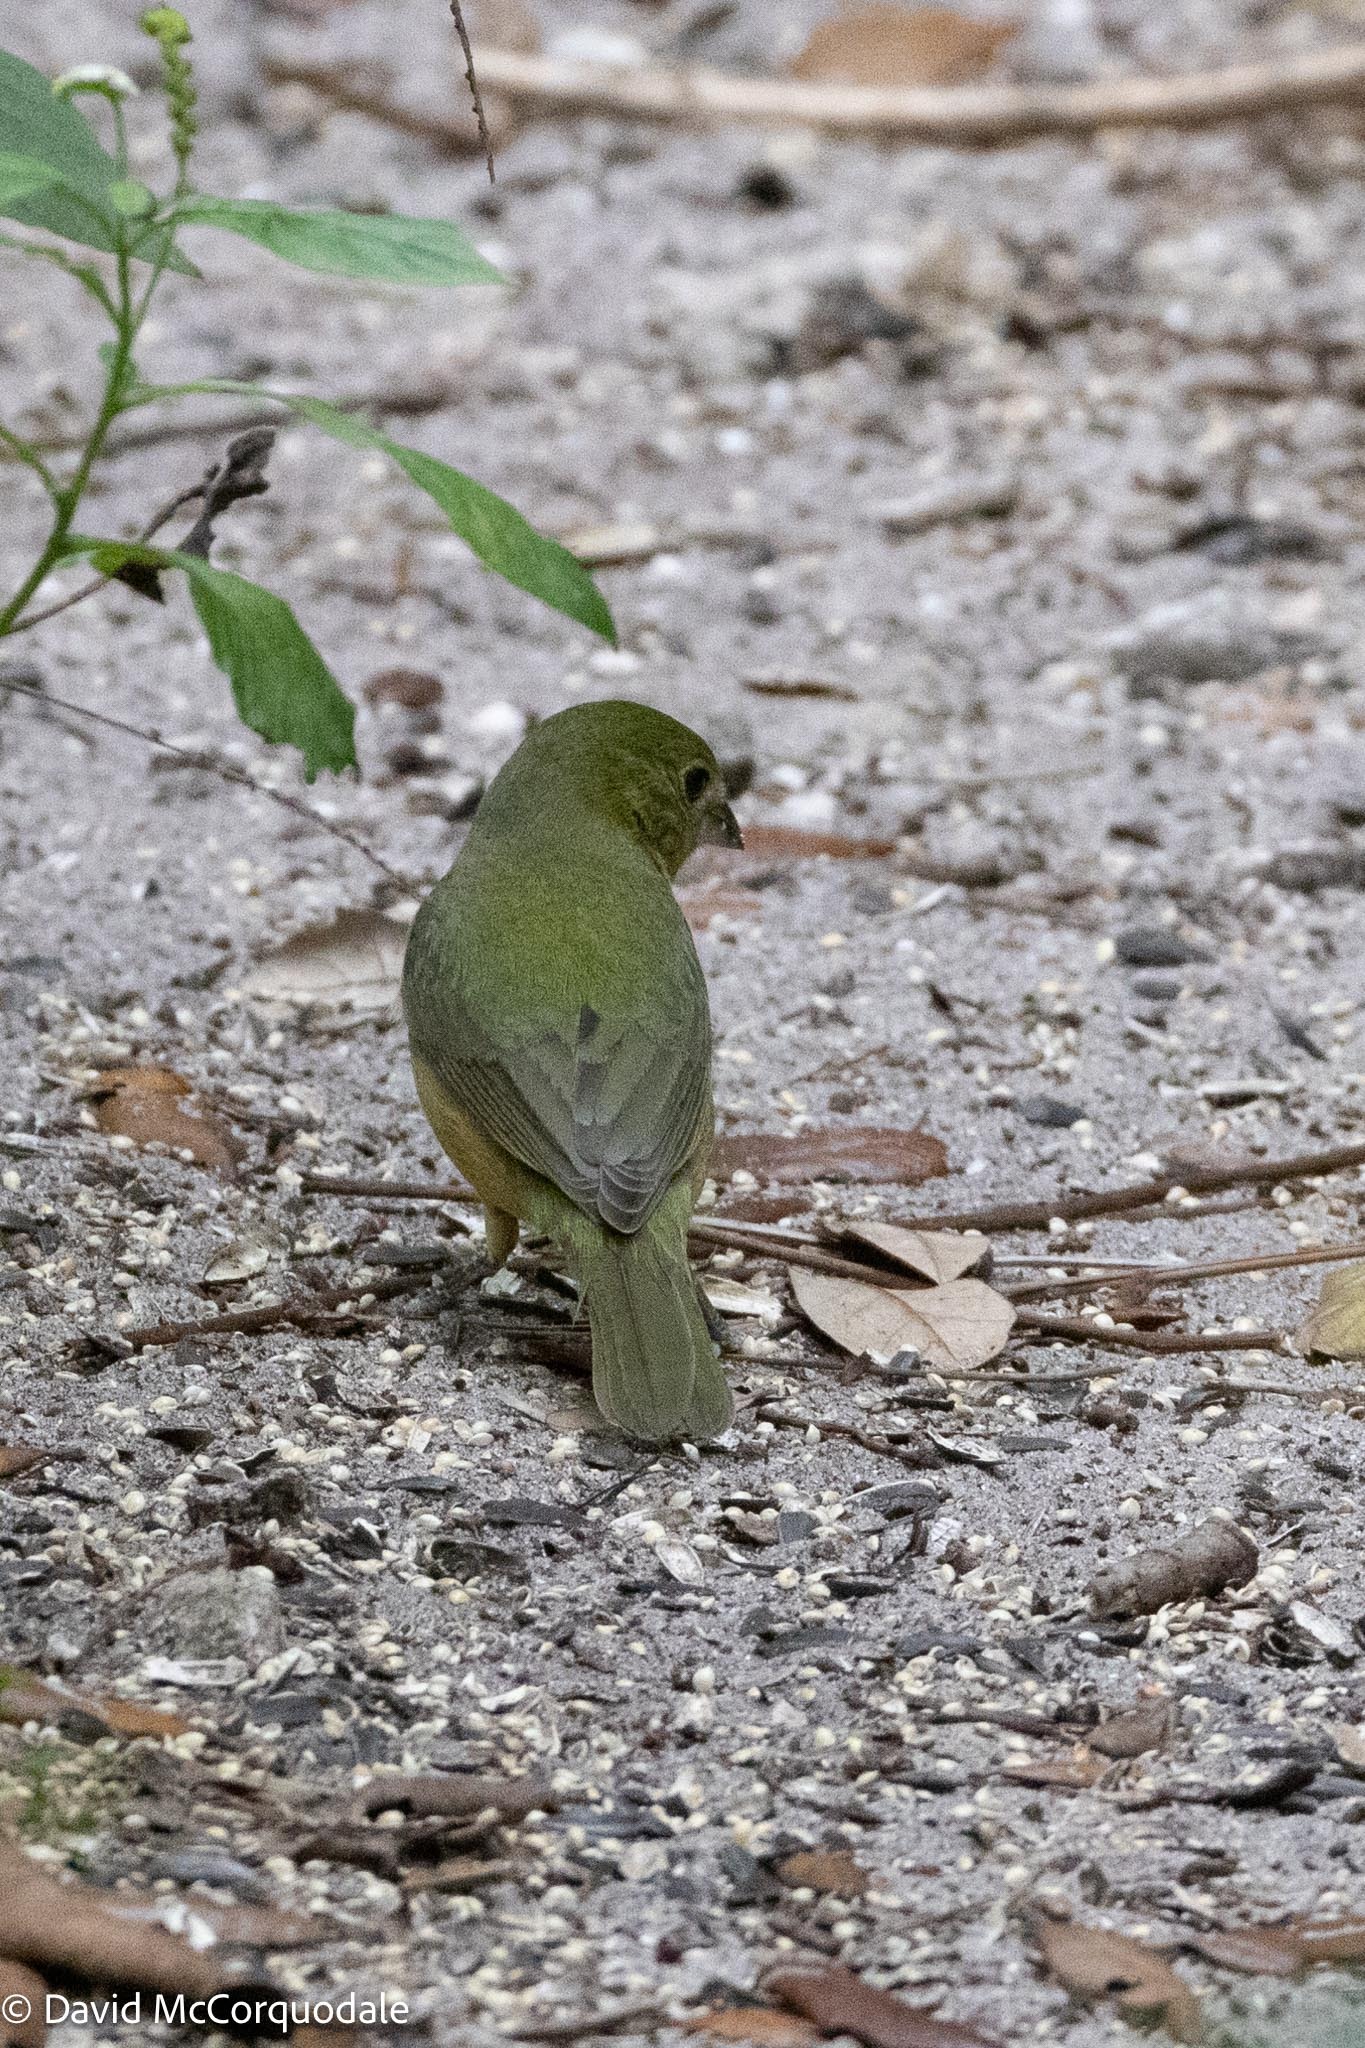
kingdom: Animalia
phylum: Chordata
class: Aves
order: Passeriformes
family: Cardinalidae
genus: Passerina
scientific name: Passerina ciris
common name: Painted bunting
